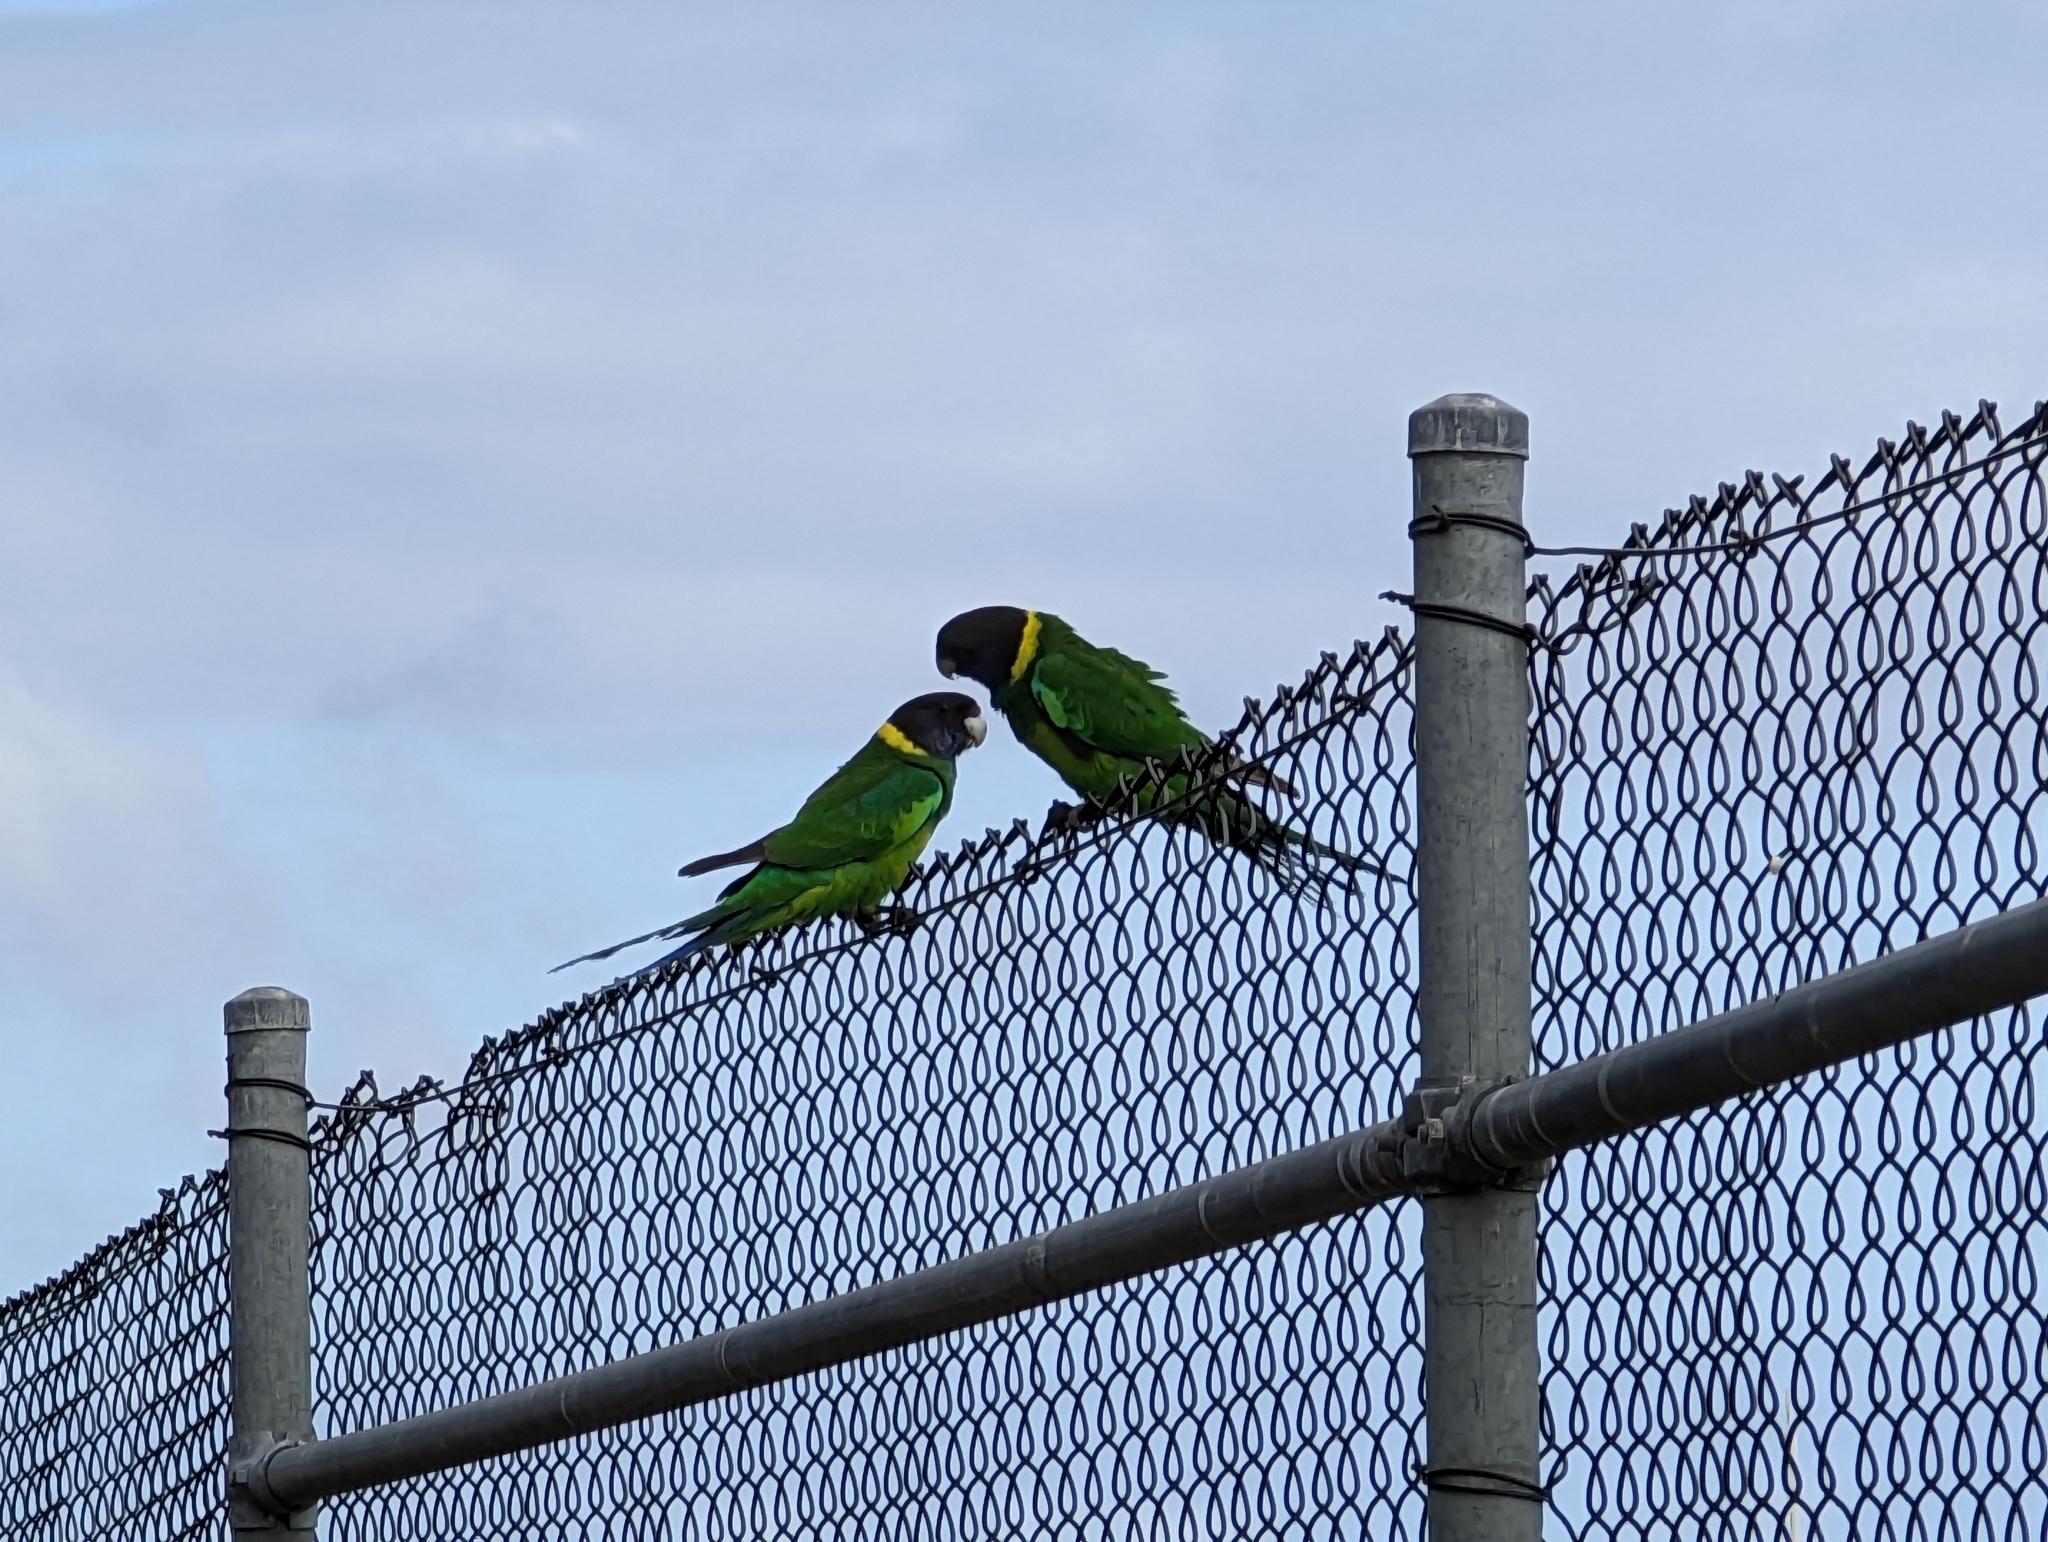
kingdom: Animalia
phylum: Chordata
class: Aves
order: Psittaciformes
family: Psittacidae
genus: Barnardius
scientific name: Barnardius zonarius
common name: Australian ringneck
